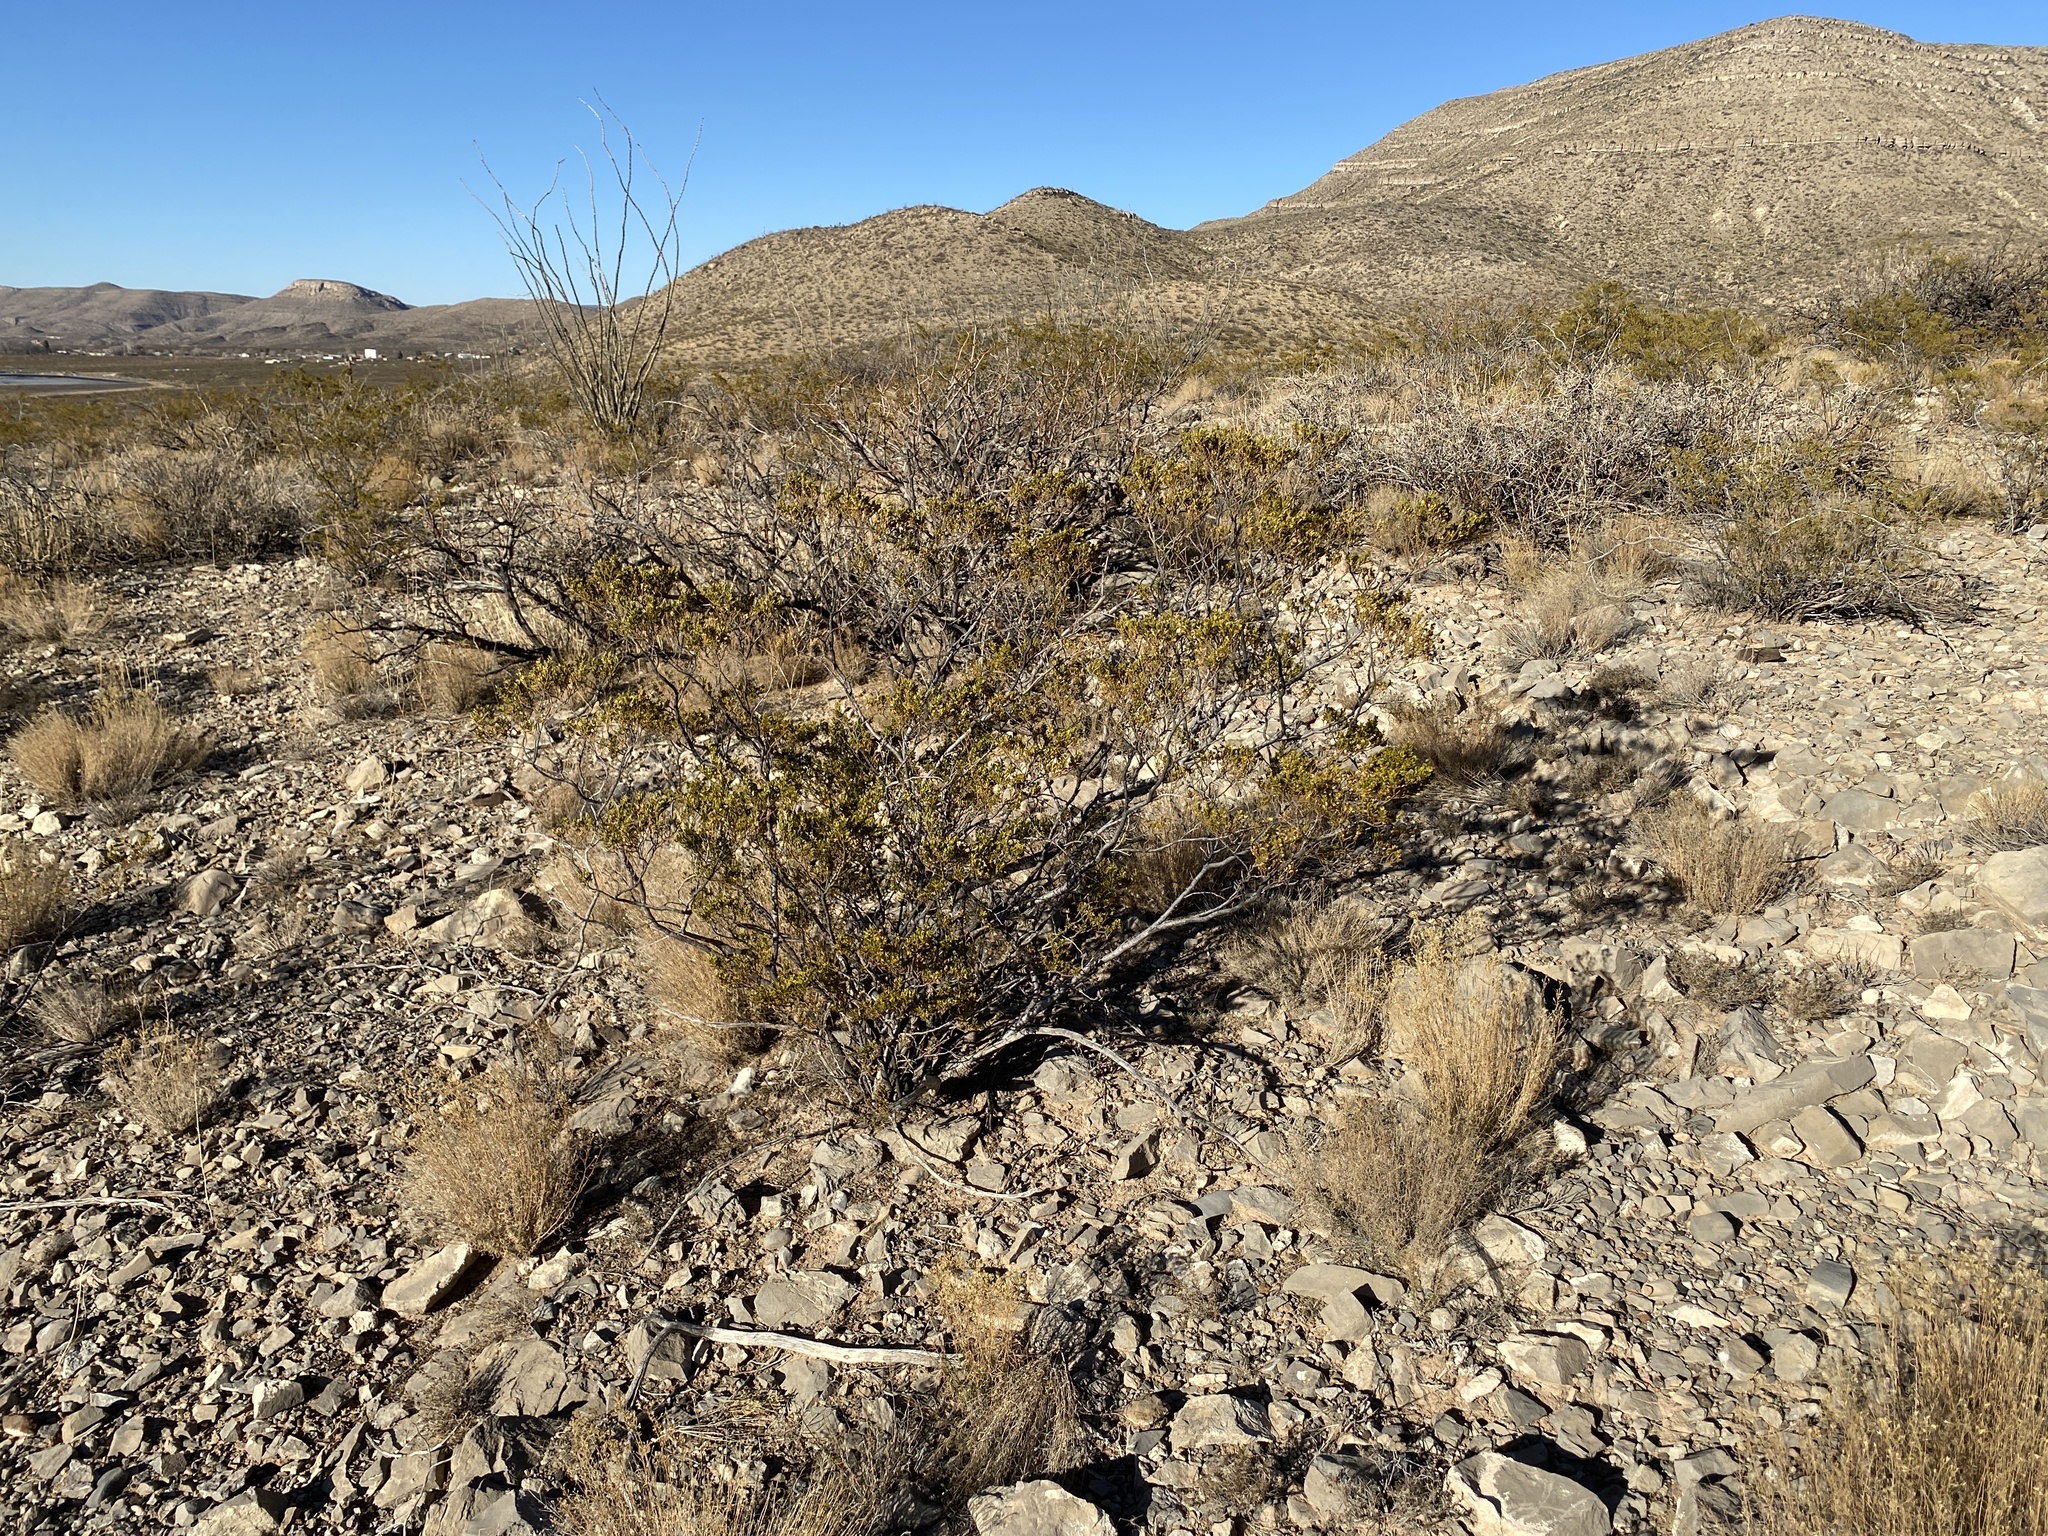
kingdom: Plantae
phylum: Tracheophyta
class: Magnoliopsida
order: Zygophyllales
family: Zygophyllaceae
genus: Larrea
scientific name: Larrea tridentata
